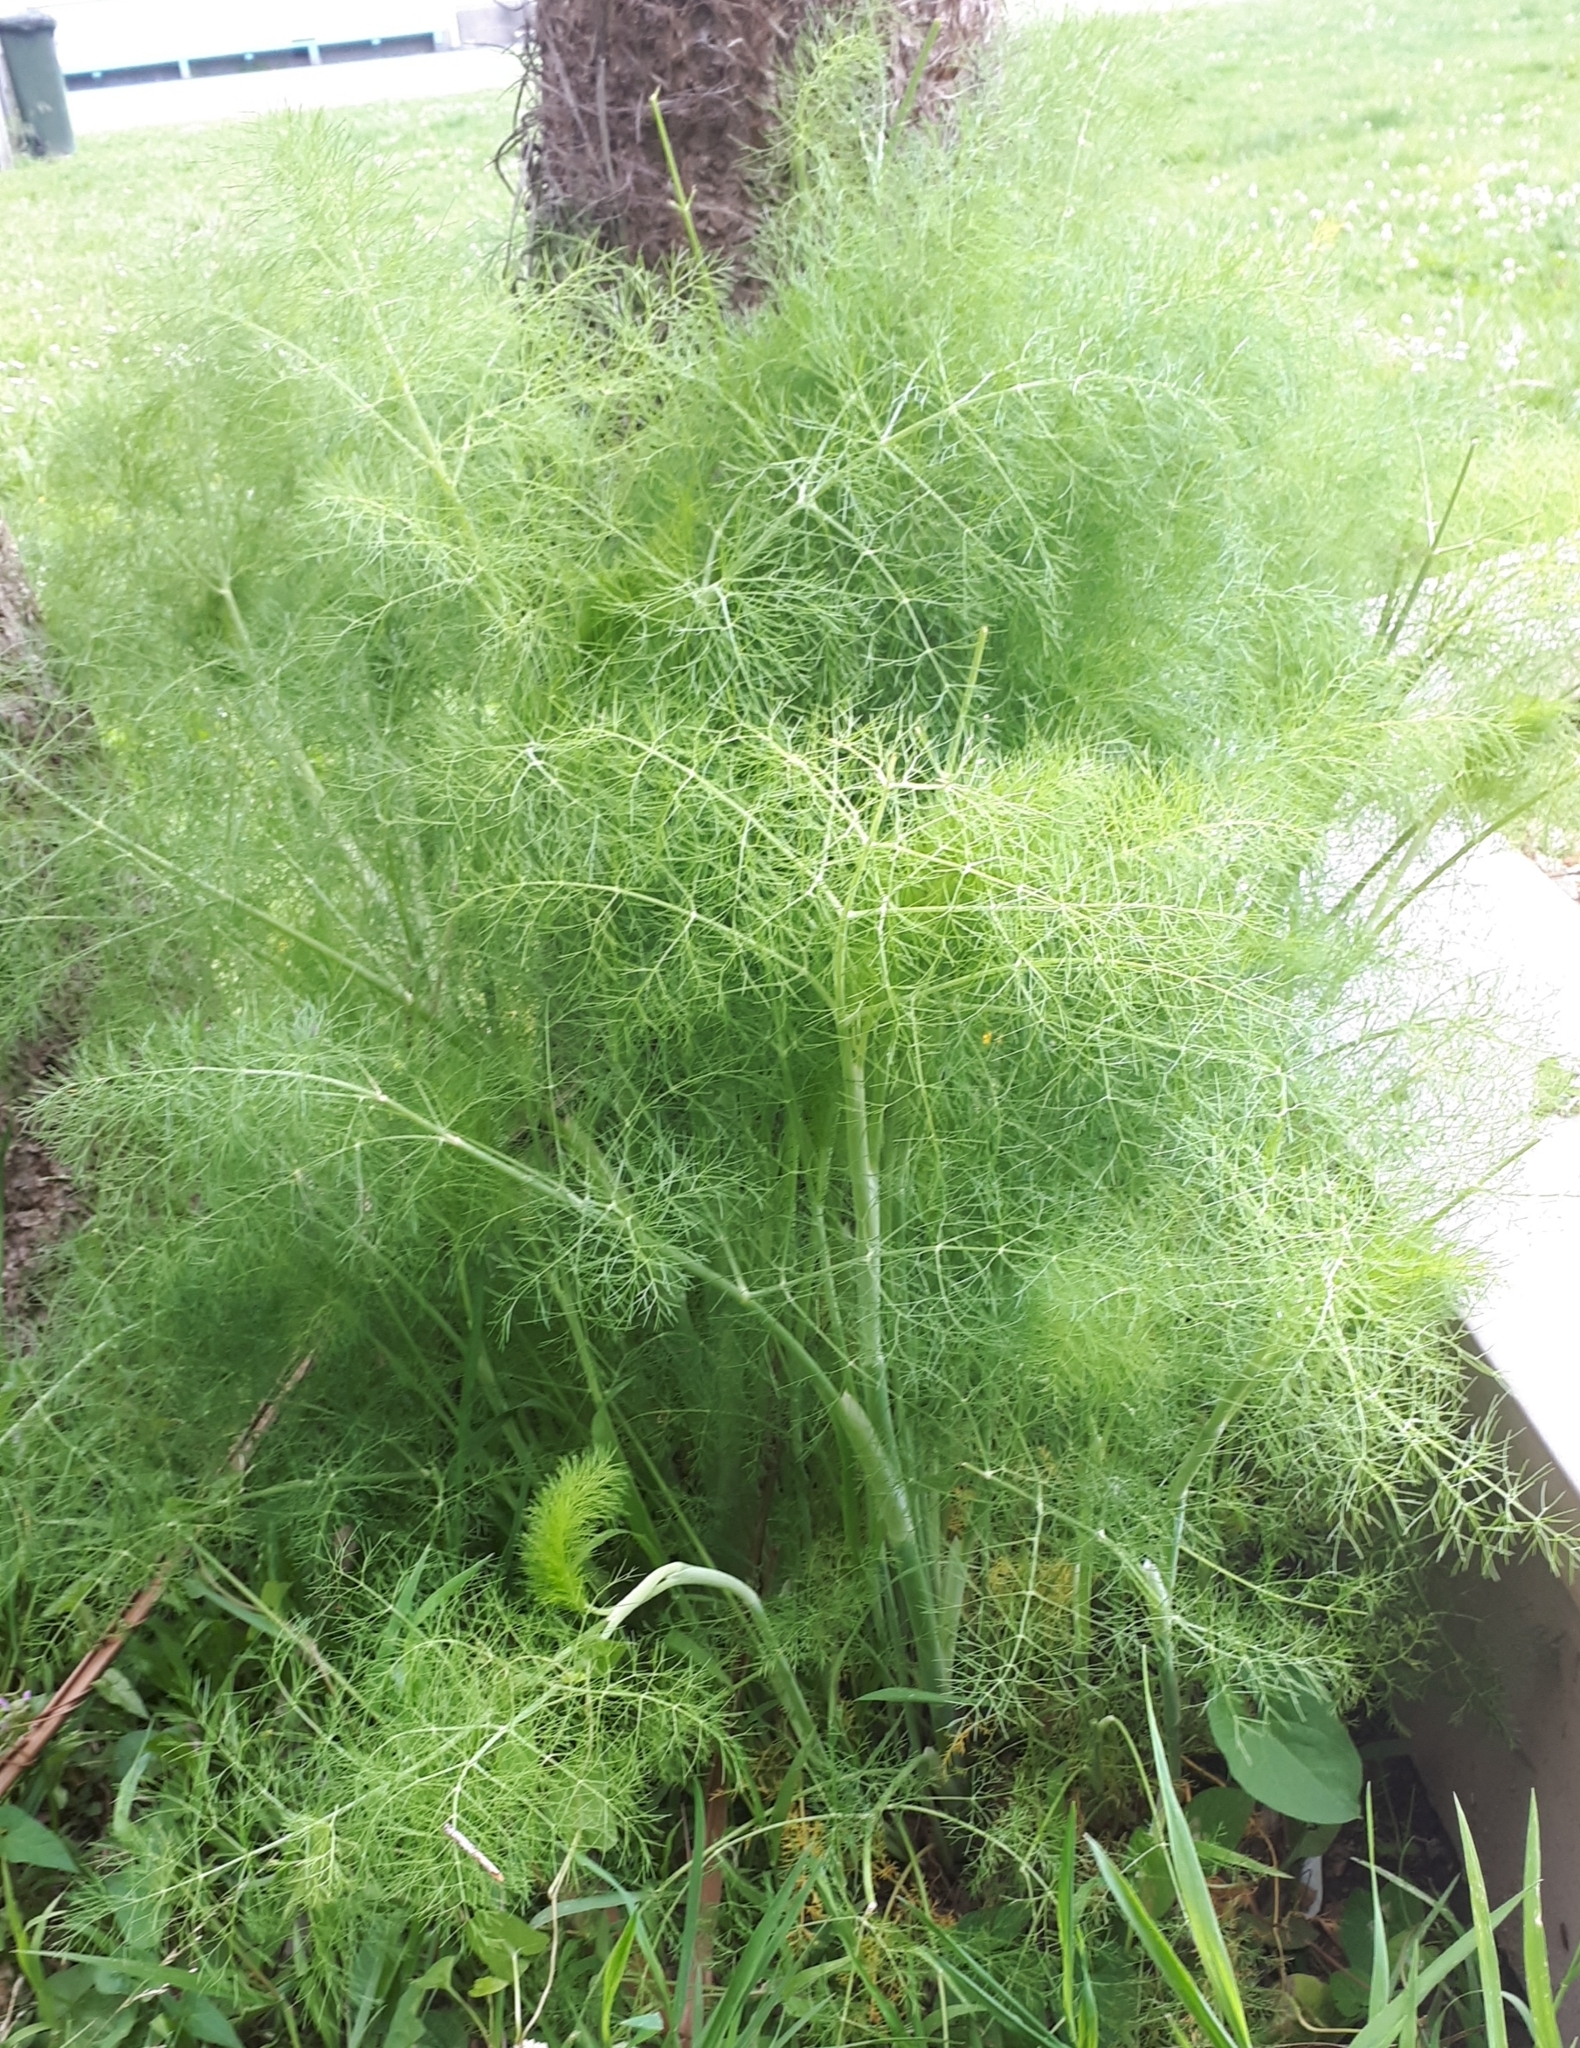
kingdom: Plantae
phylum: Tracheophyta
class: Magnoliopsida
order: Apiales
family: Apiaceae
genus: Foeniculum
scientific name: Foeniculum vulgare
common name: Fennel
